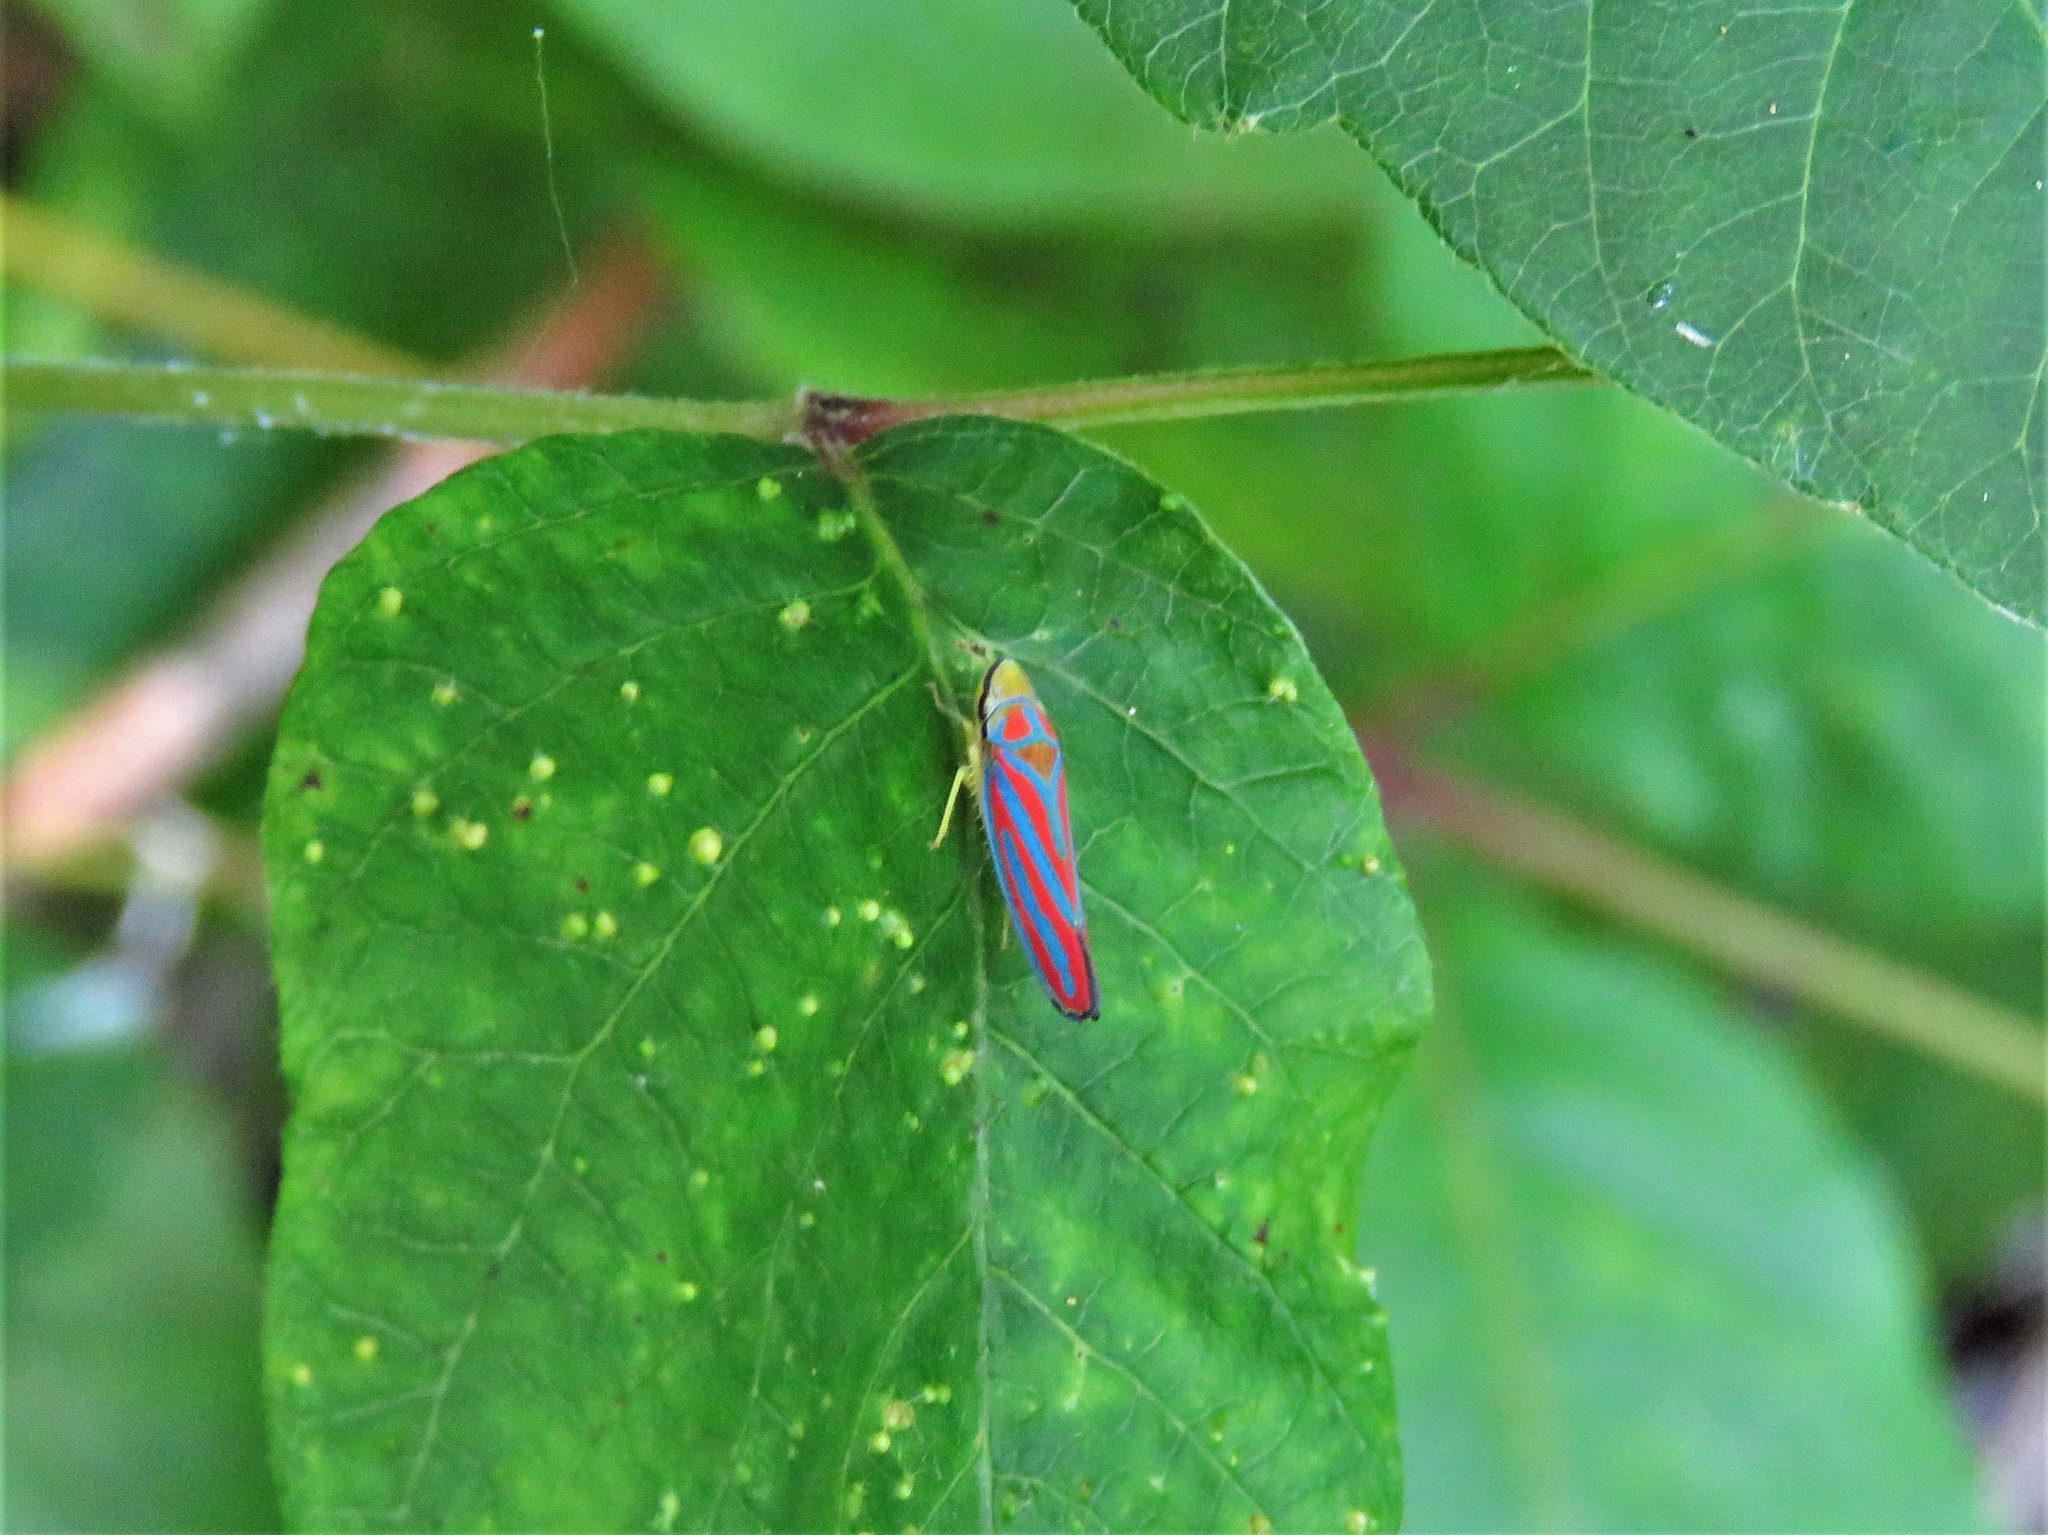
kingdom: Animalia
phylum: Arthropoda
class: Insecta
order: Hemiptera
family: Cicadellidae
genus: Graphocephala
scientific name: Graphocephala coccinea
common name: Candy-striped leafhopper
